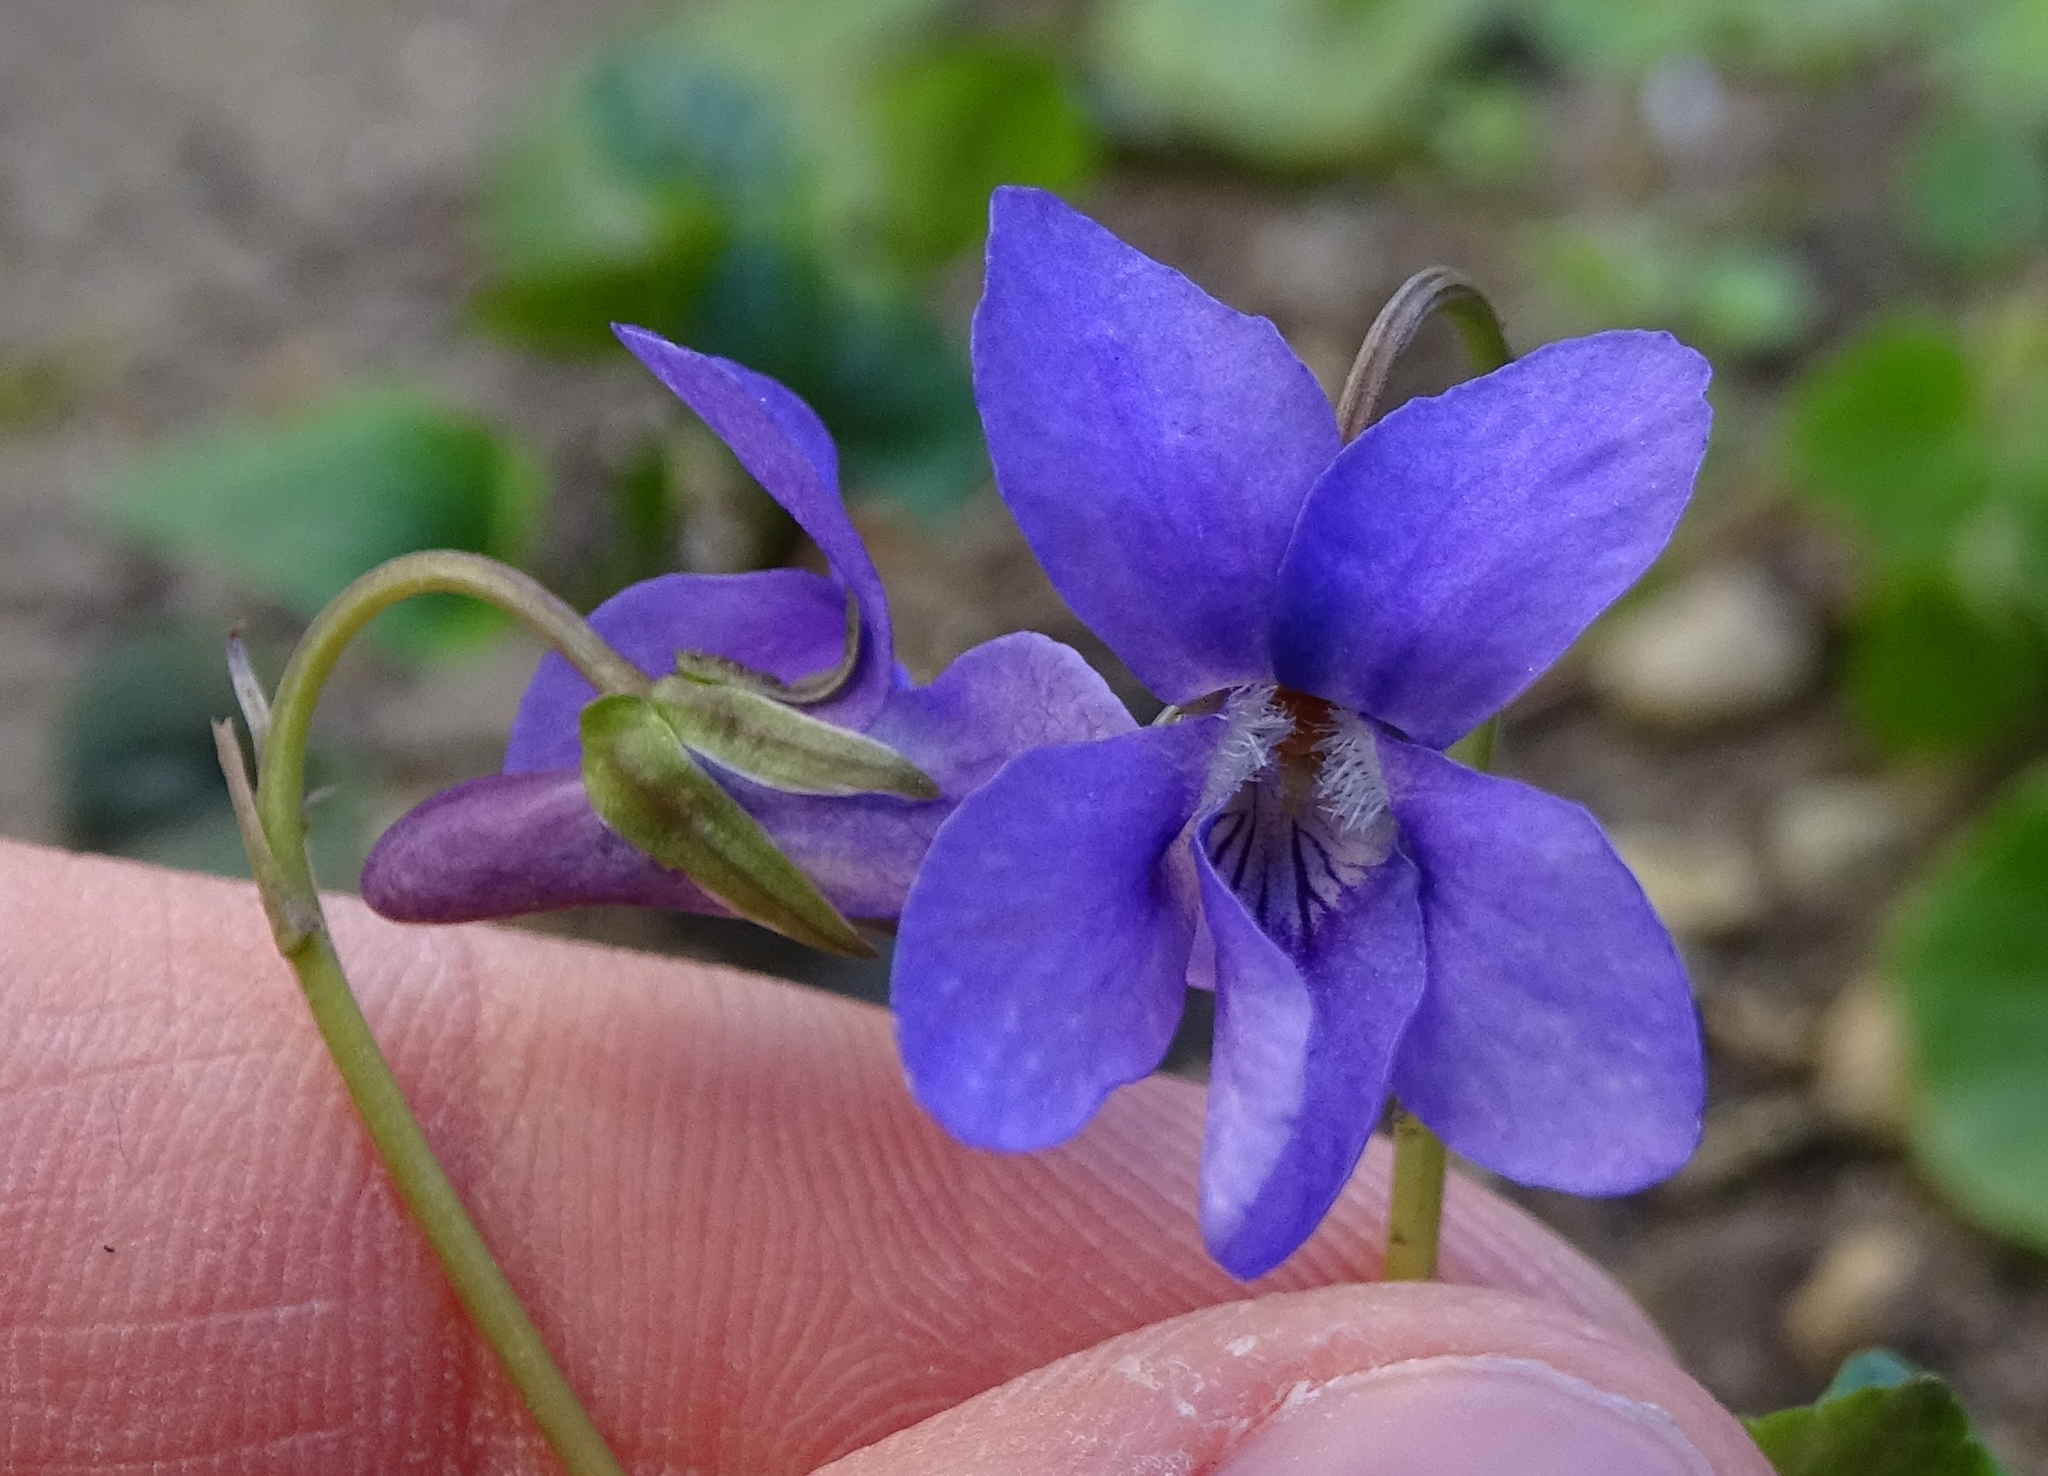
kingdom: Plantae
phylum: Tracheophyta
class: Magnoliopsida
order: Malpighiales
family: Violaceae
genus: Viola
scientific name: Viola reichenbachiana
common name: Early dog-violet
